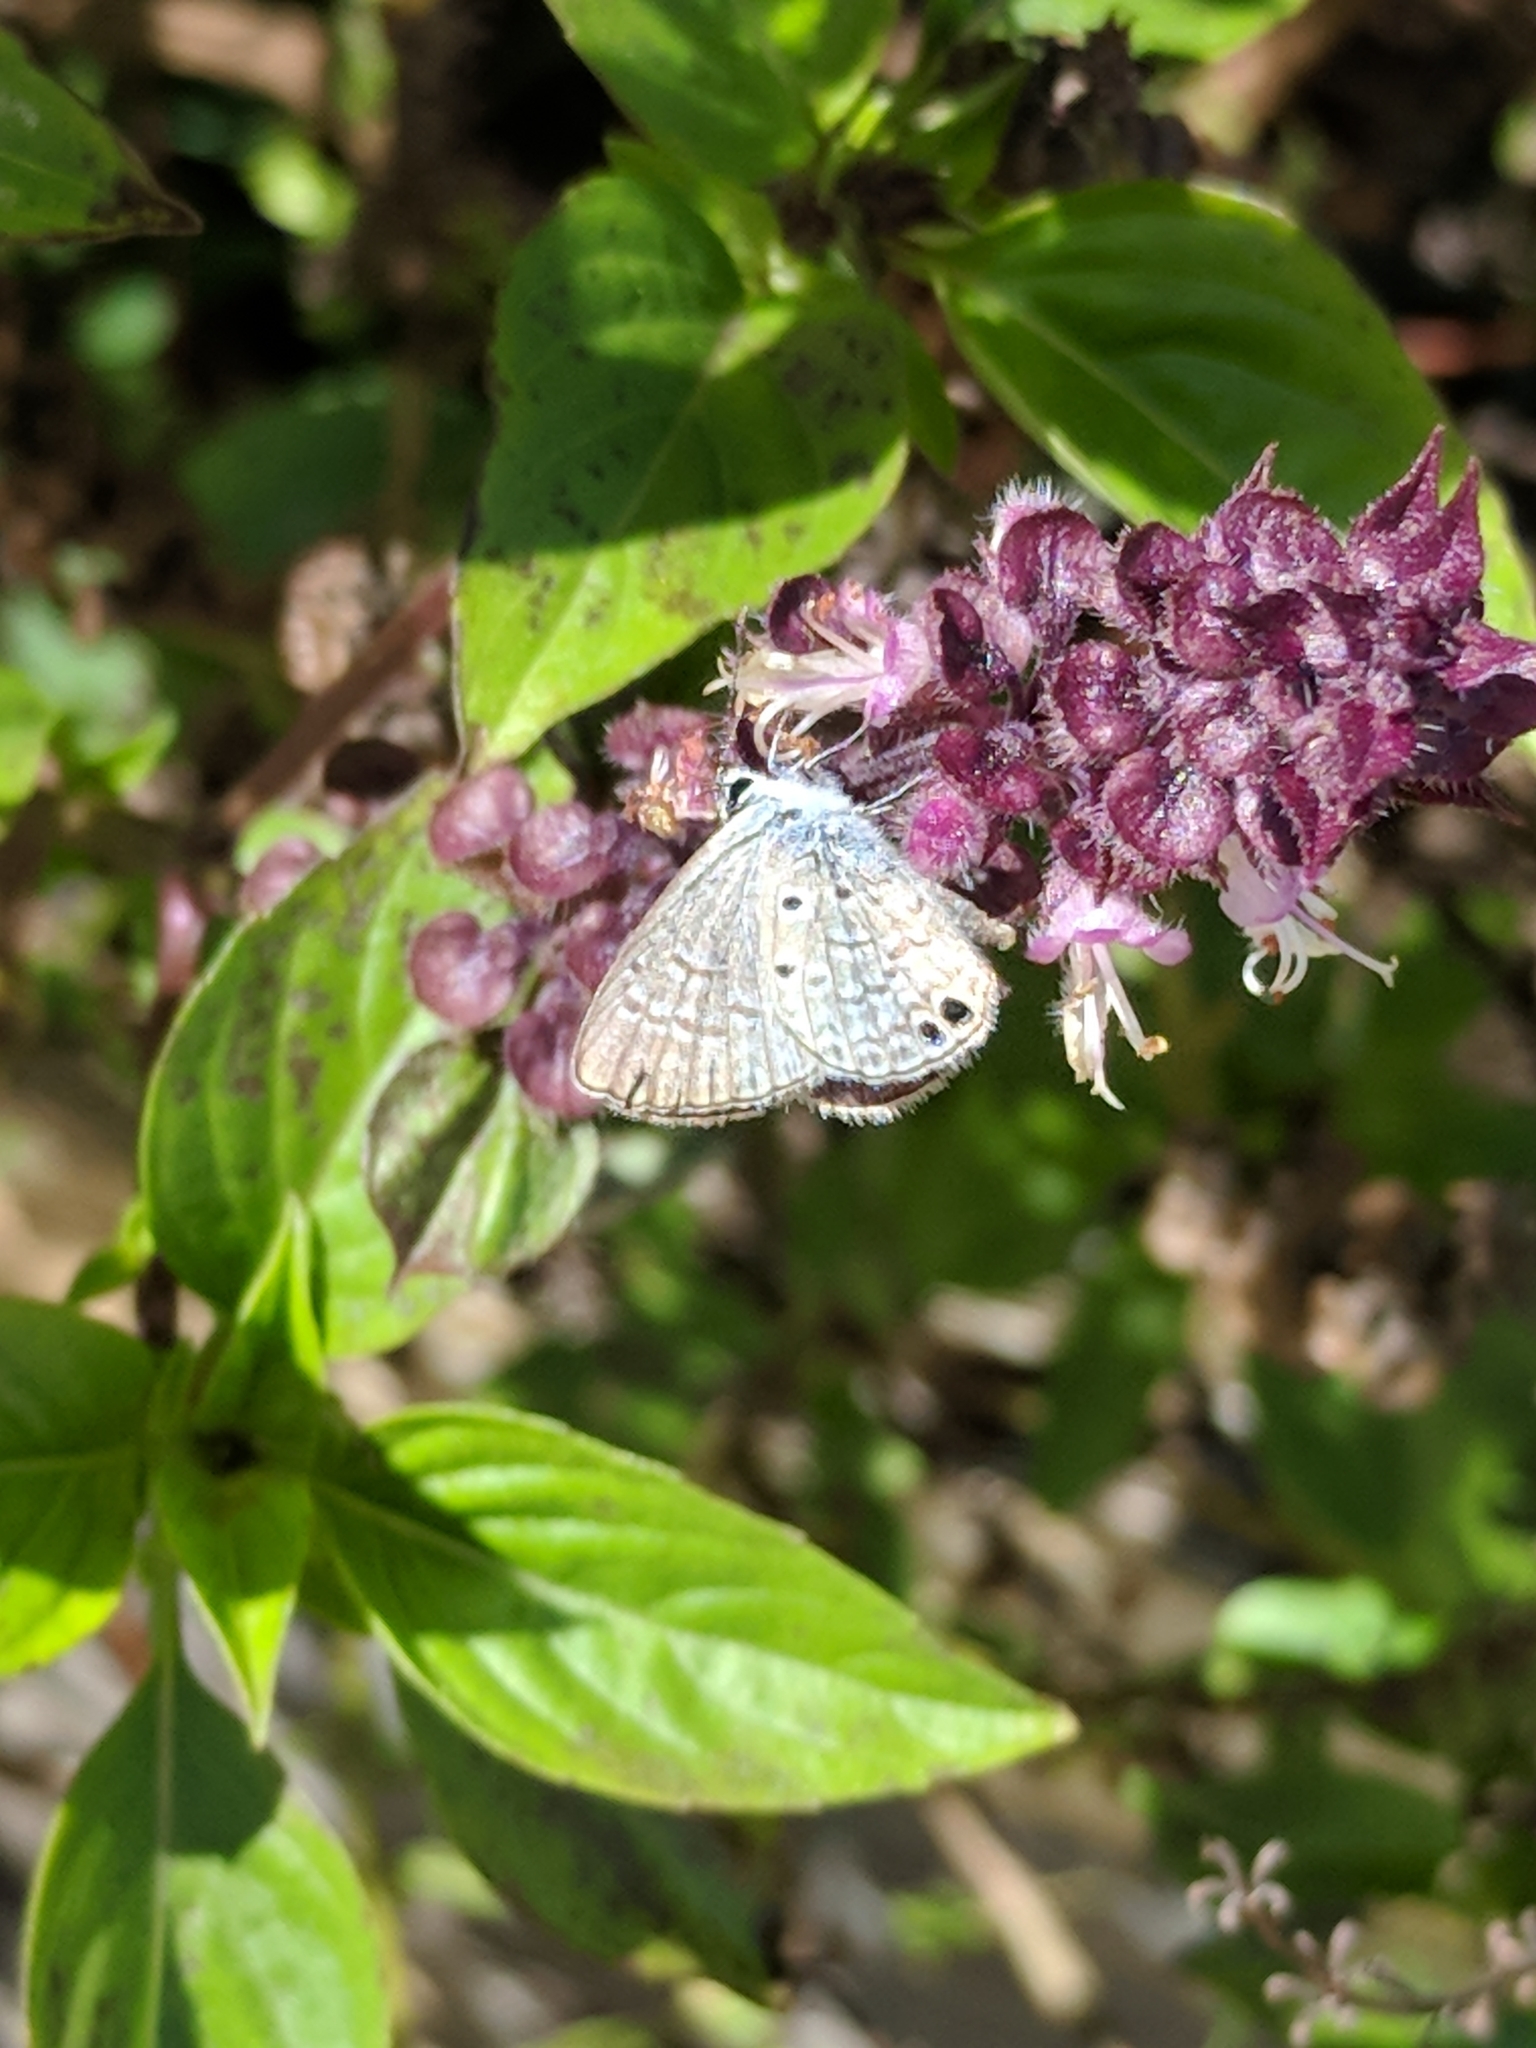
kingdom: Animalia
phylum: Arthropoda
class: Insecta
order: Lepidoptera
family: Lycaenidae
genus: Hemiargus
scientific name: Hemiargus ceraunus
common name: Ceraunus blue
